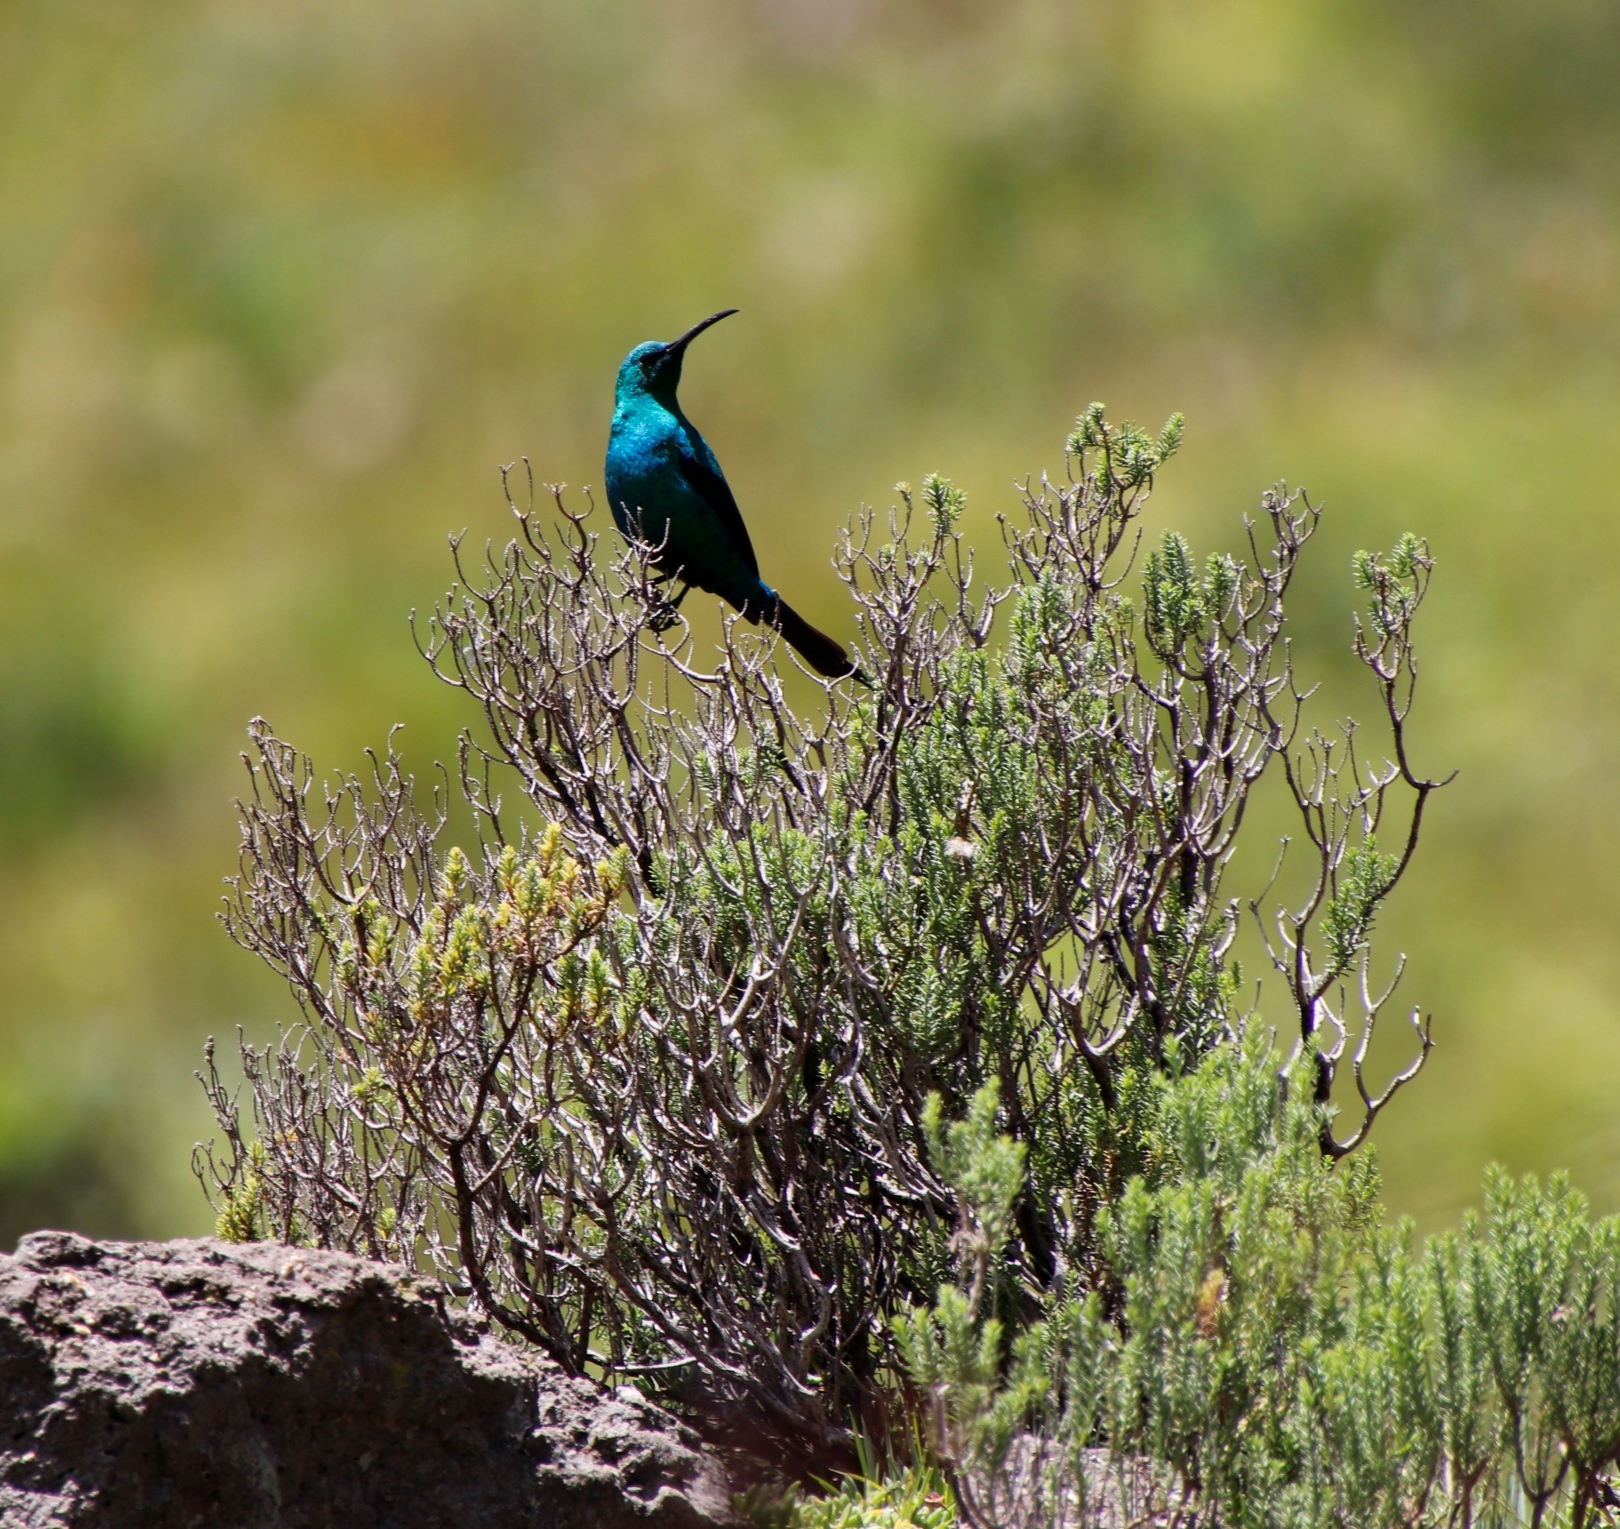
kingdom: Animalia
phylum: Chordata
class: Aves
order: Passeriformes
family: Nectariniidae
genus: Nectarinia
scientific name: Nectarinia famosa
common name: Malachite sunbird
